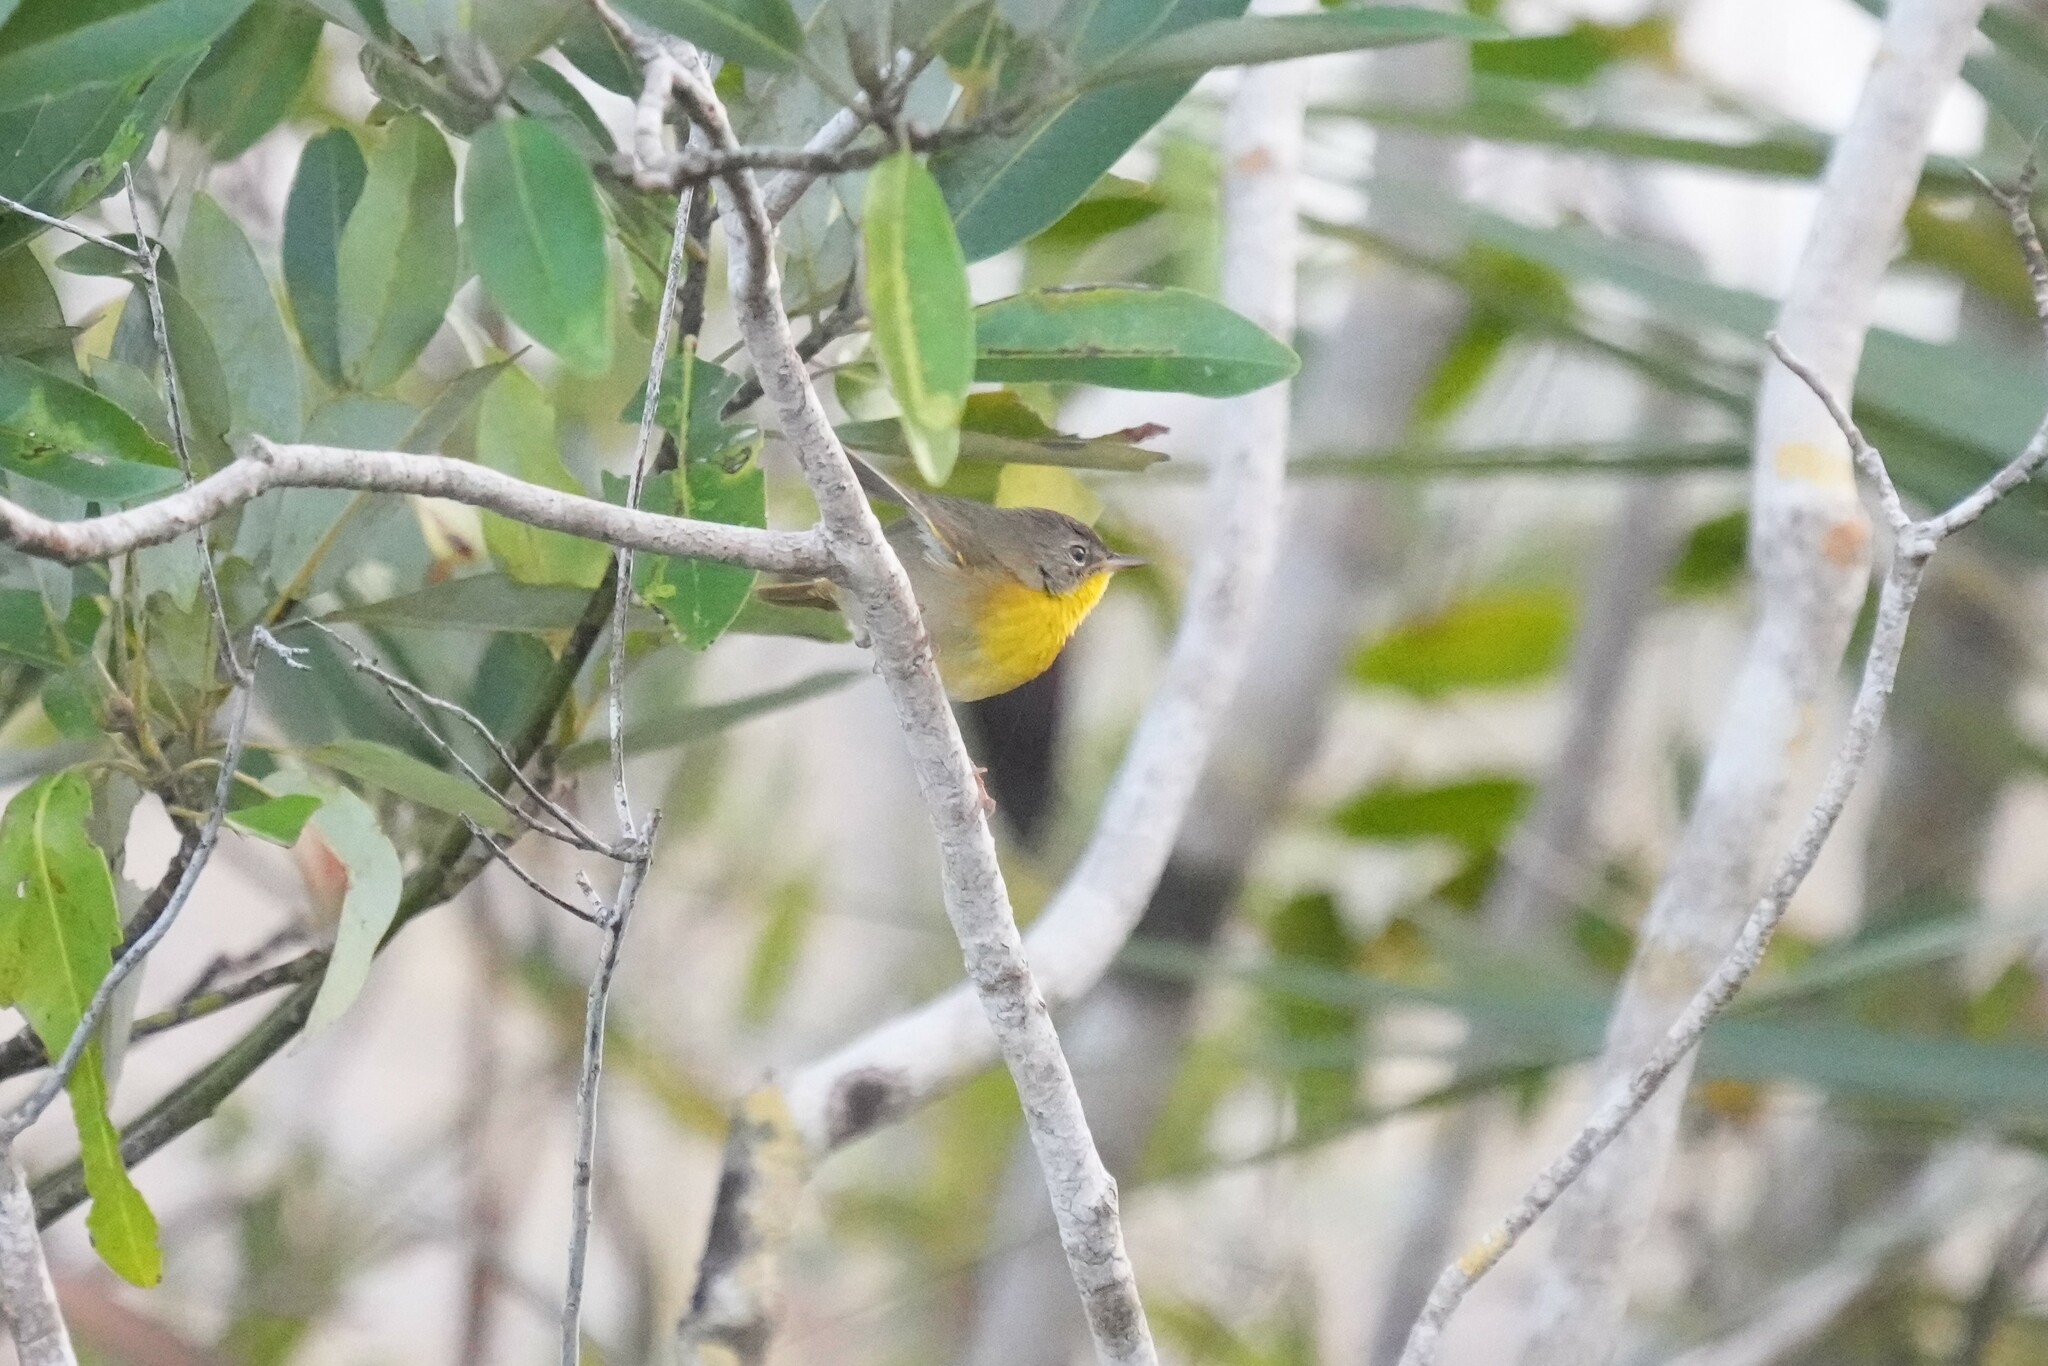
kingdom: Animalia
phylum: Chordata
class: Aves
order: Passeriformes
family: Parulidae
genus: Geothlypis
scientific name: Geothlypis trichas
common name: Common yellowthroat
